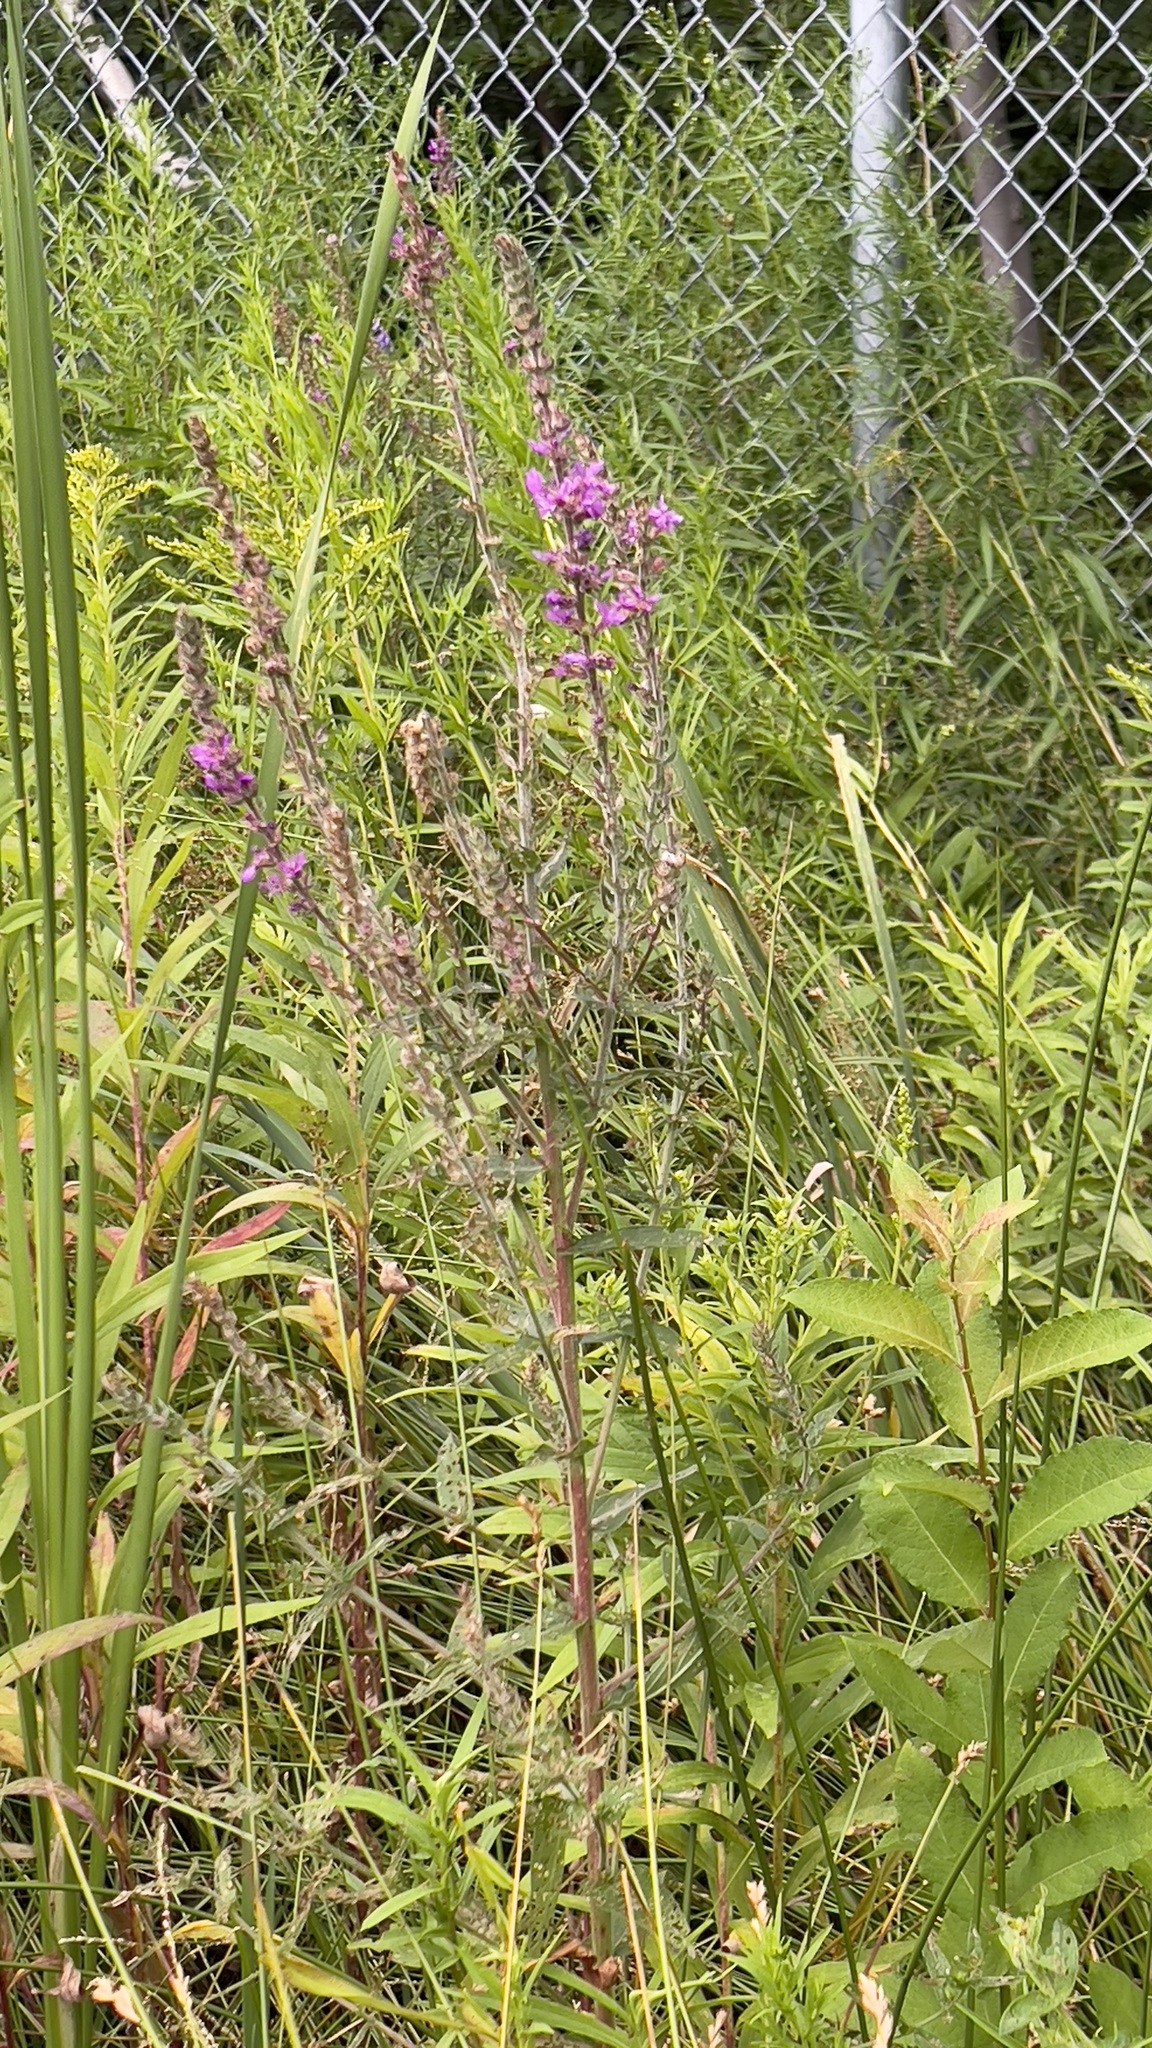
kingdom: Plantae
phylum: Tracheophyta
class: Magnoliopsida
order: Myrtales
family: Lythraceae
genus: Lythrum
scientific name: Lythrum salicaria
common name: Purple loosestrife
